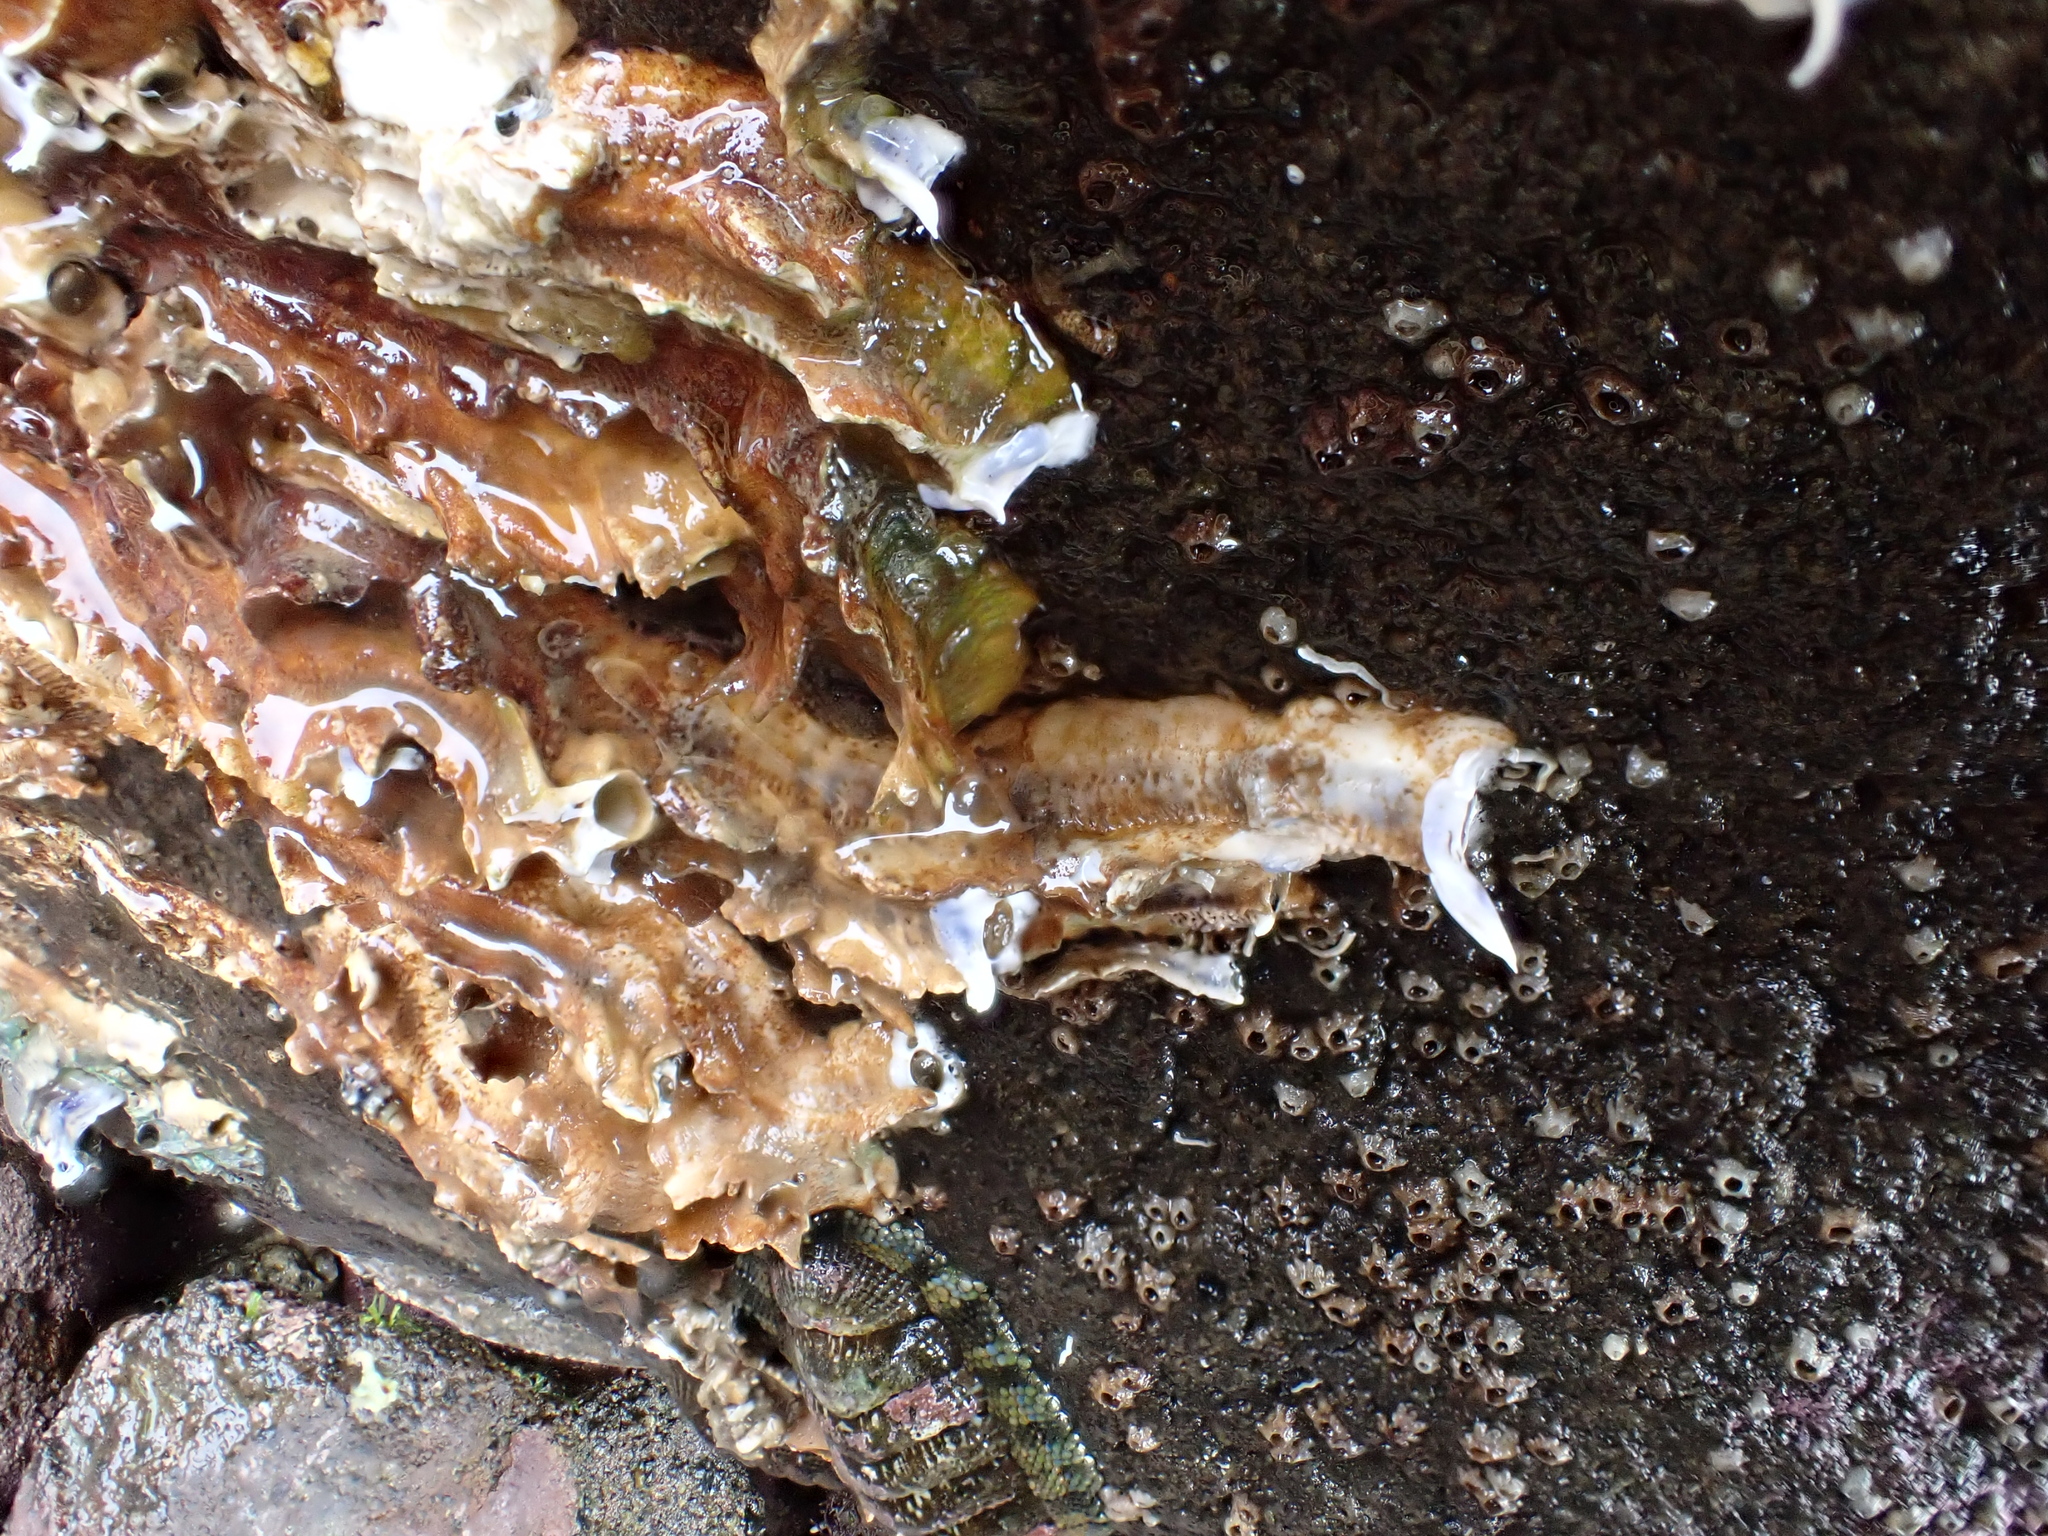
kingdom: Animalia
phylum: Annelida
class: Polychaeta
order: Sabellida
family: Serpulidae
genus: Spirobranchus
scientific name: Spirobranchus cariniferus
